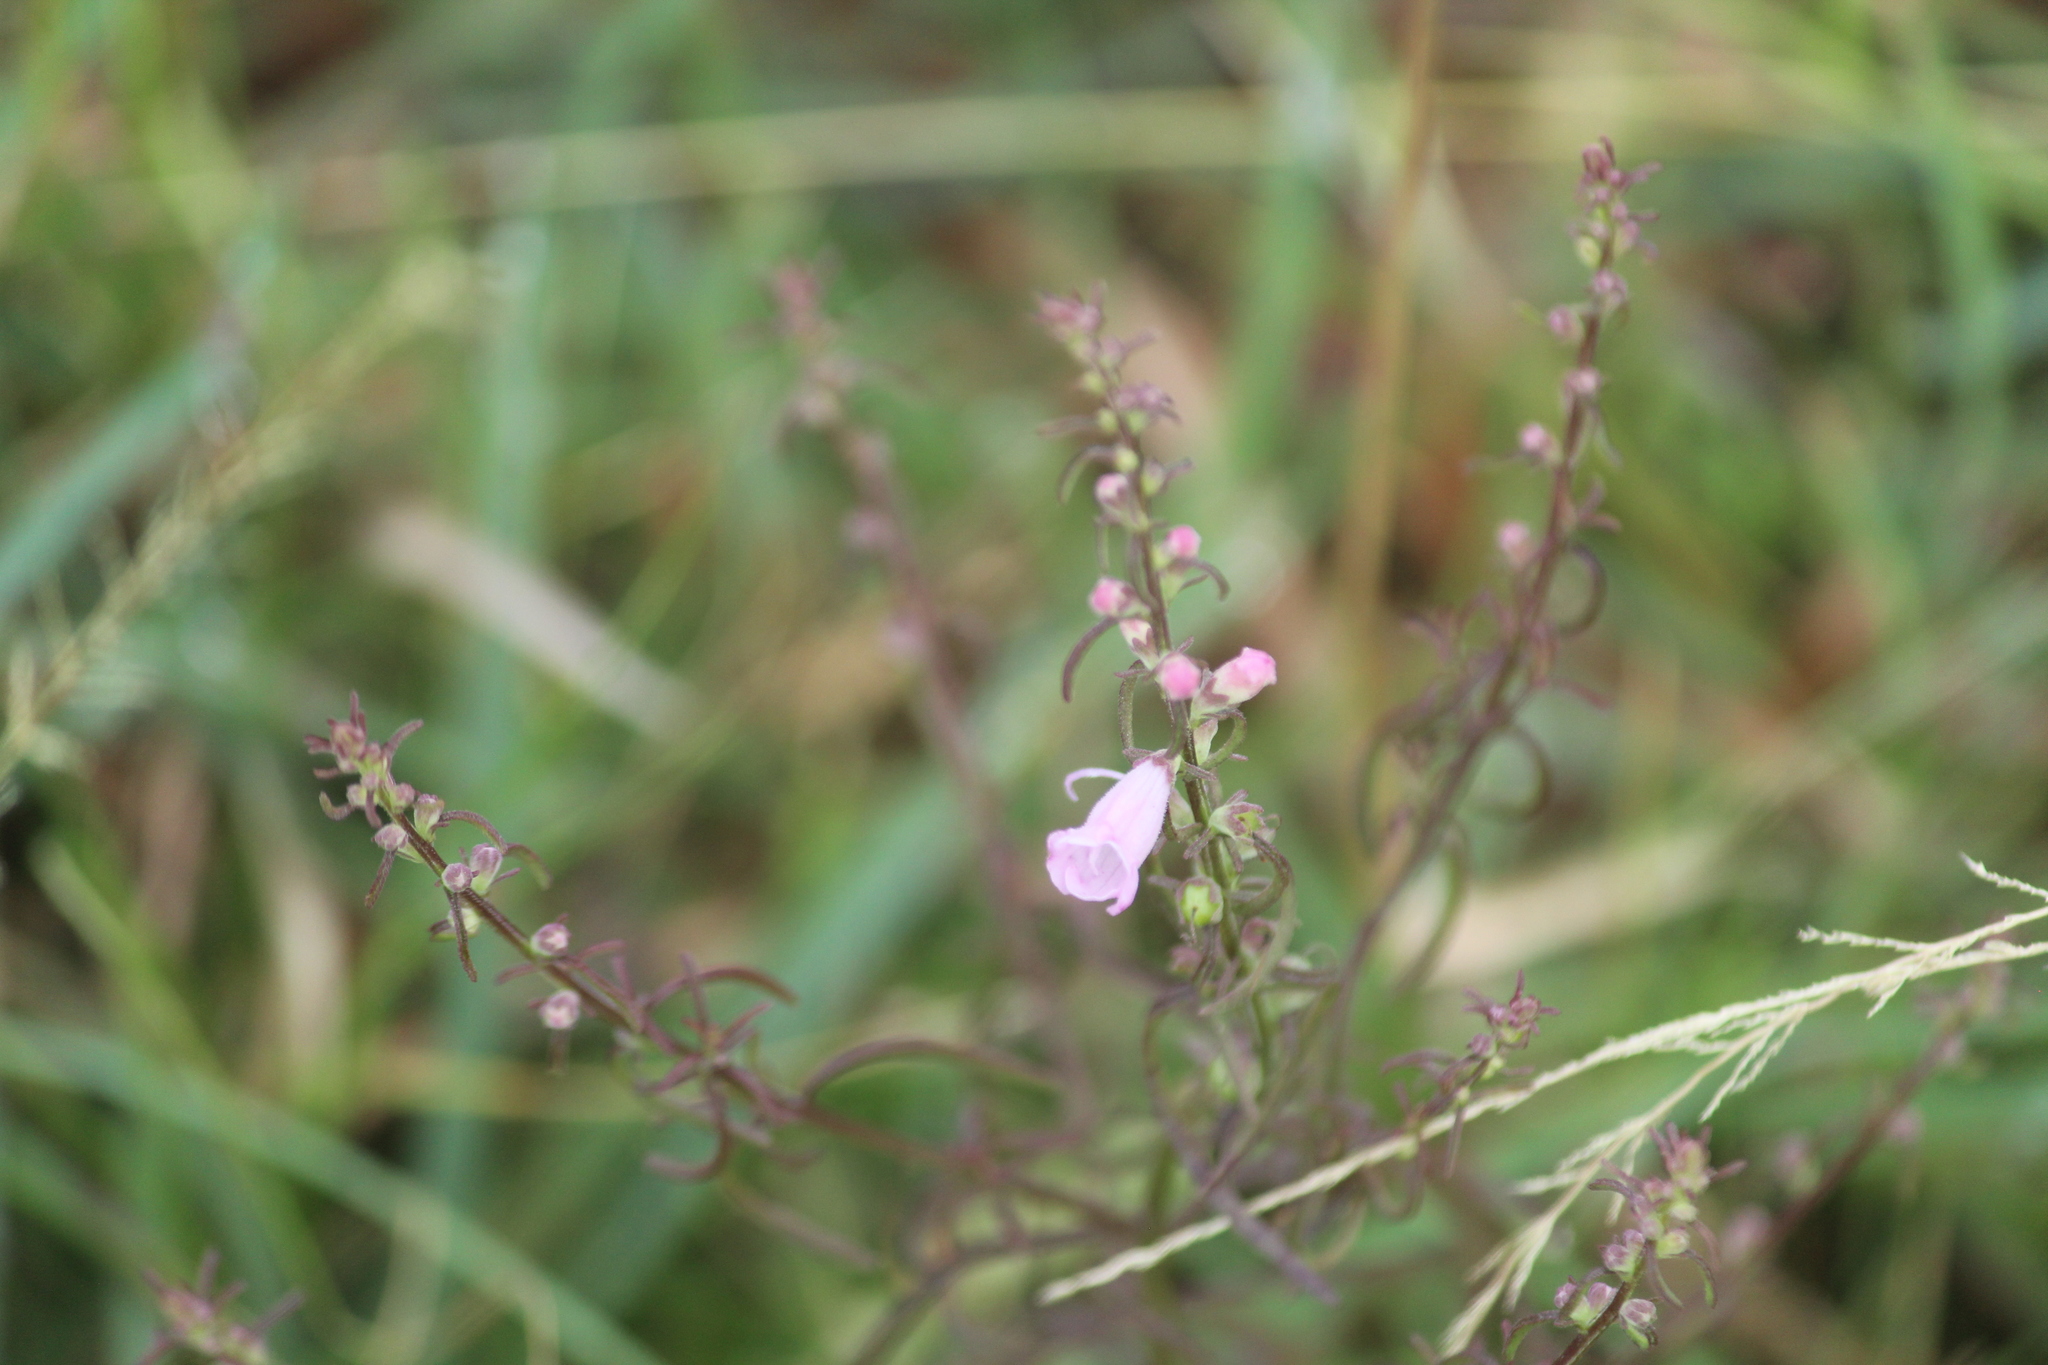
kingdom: Plantae
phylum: Tracheophyta
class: Magnoliopsida
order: Lamiales
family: Orobanchaceae
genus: Micrargeria
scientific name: Micrargeria wightii
